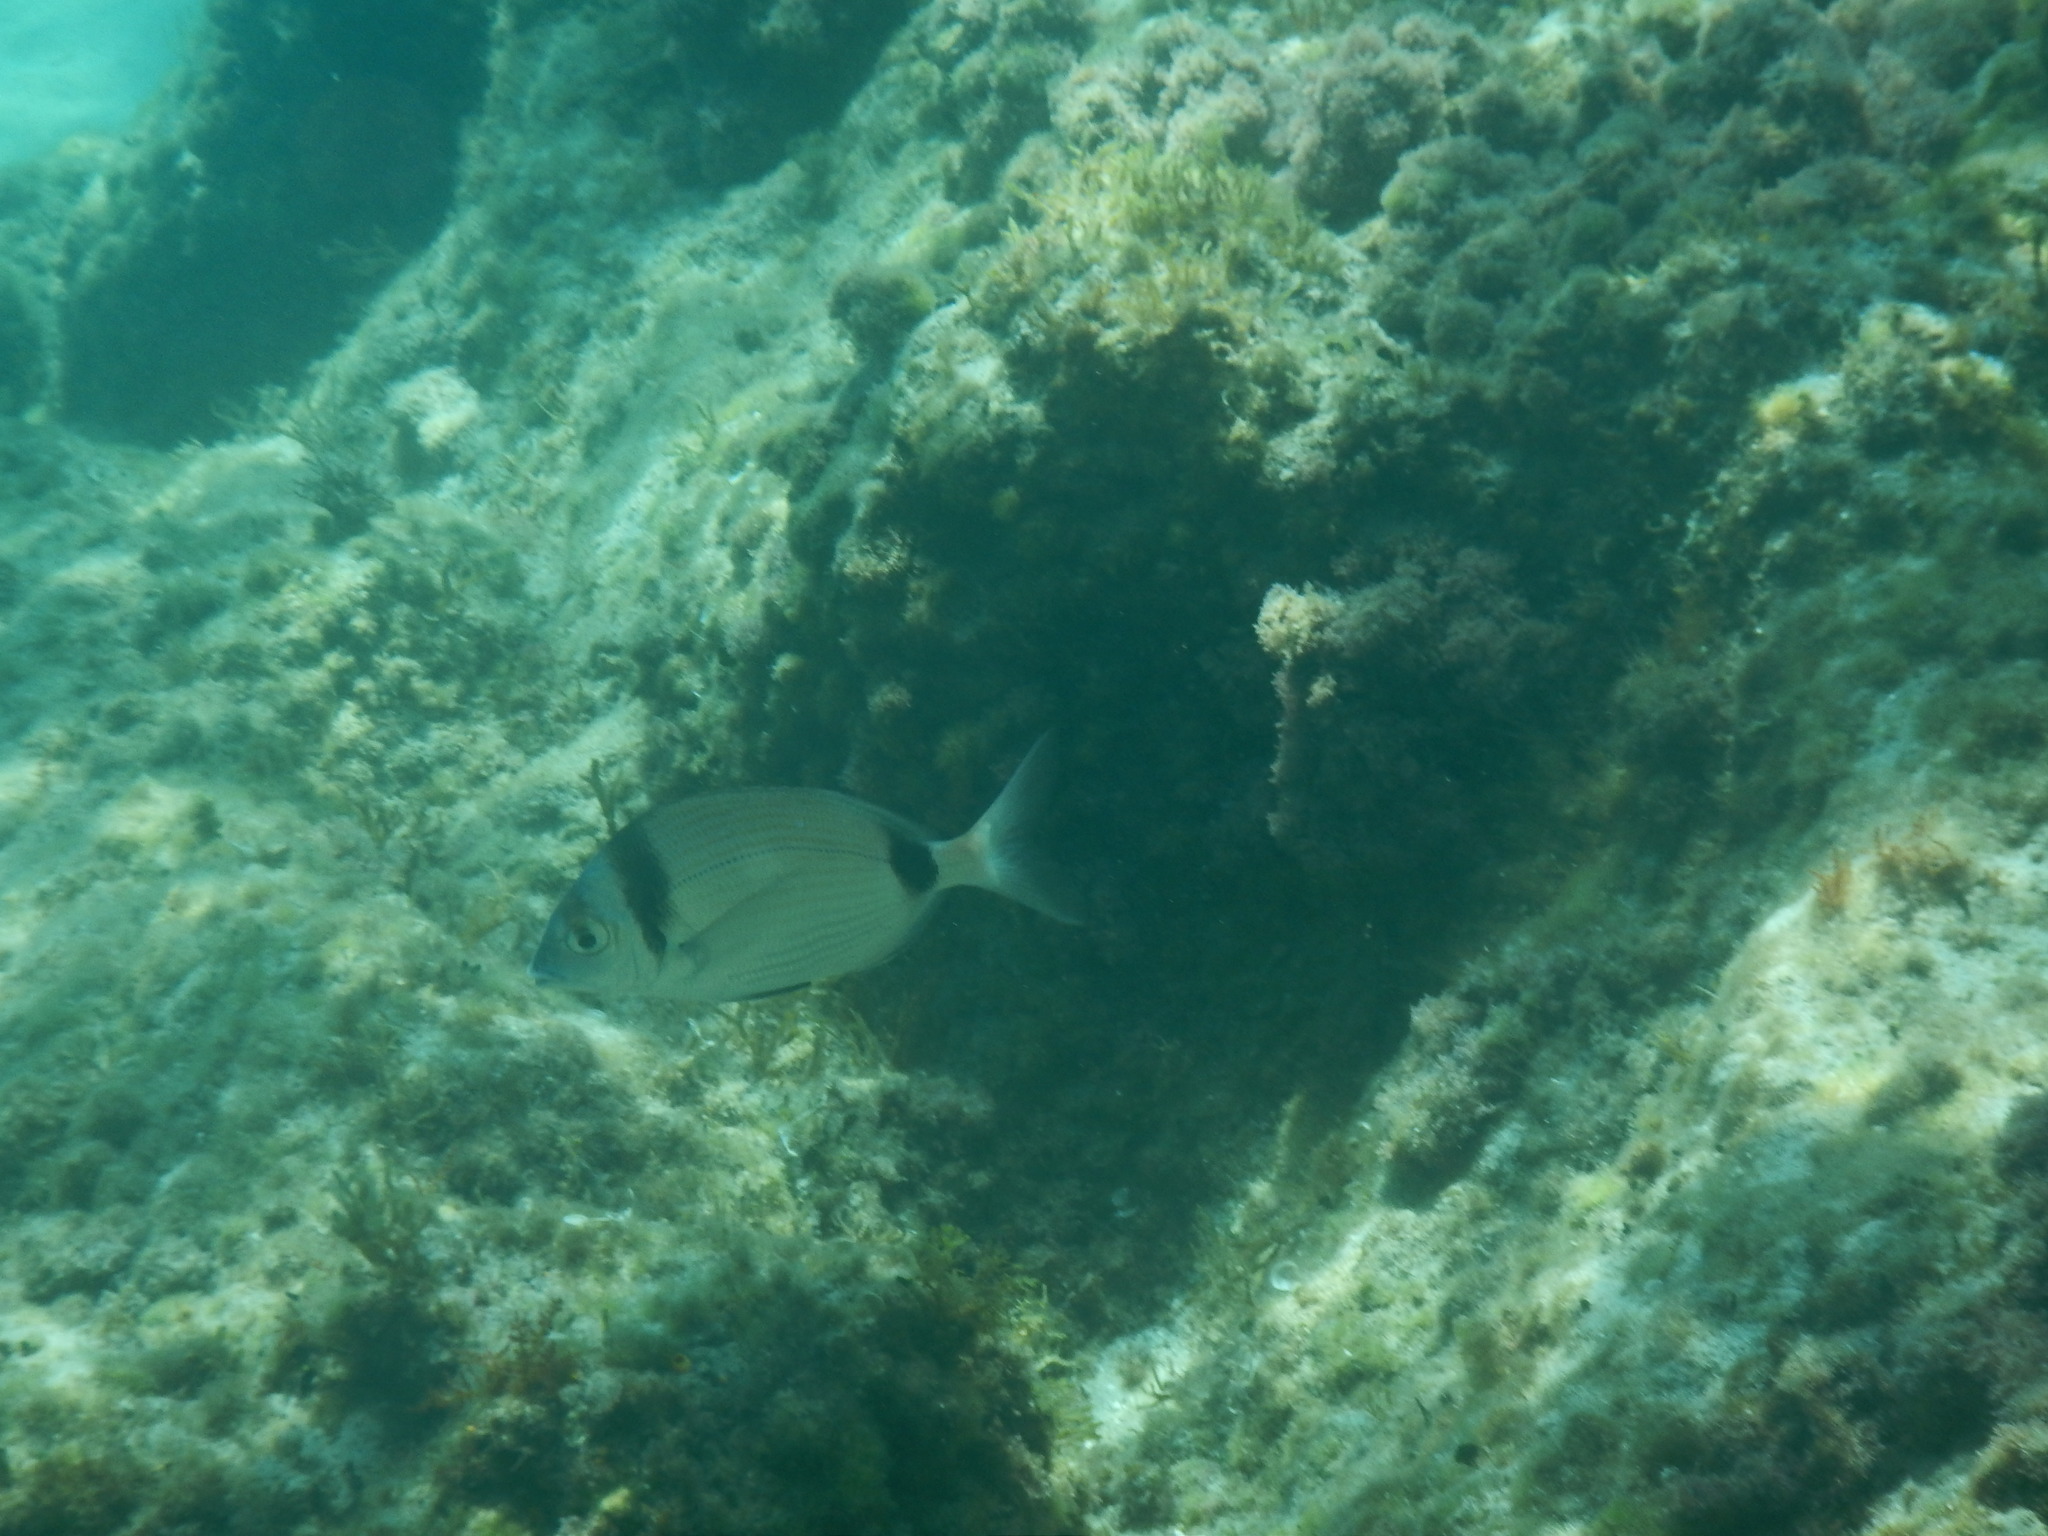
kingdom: Animalia
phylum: Chordata
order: Perciformes
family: Sparidae
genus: Diplodus
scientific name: Diplodus vulgaris
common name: Common two-banded seabream
